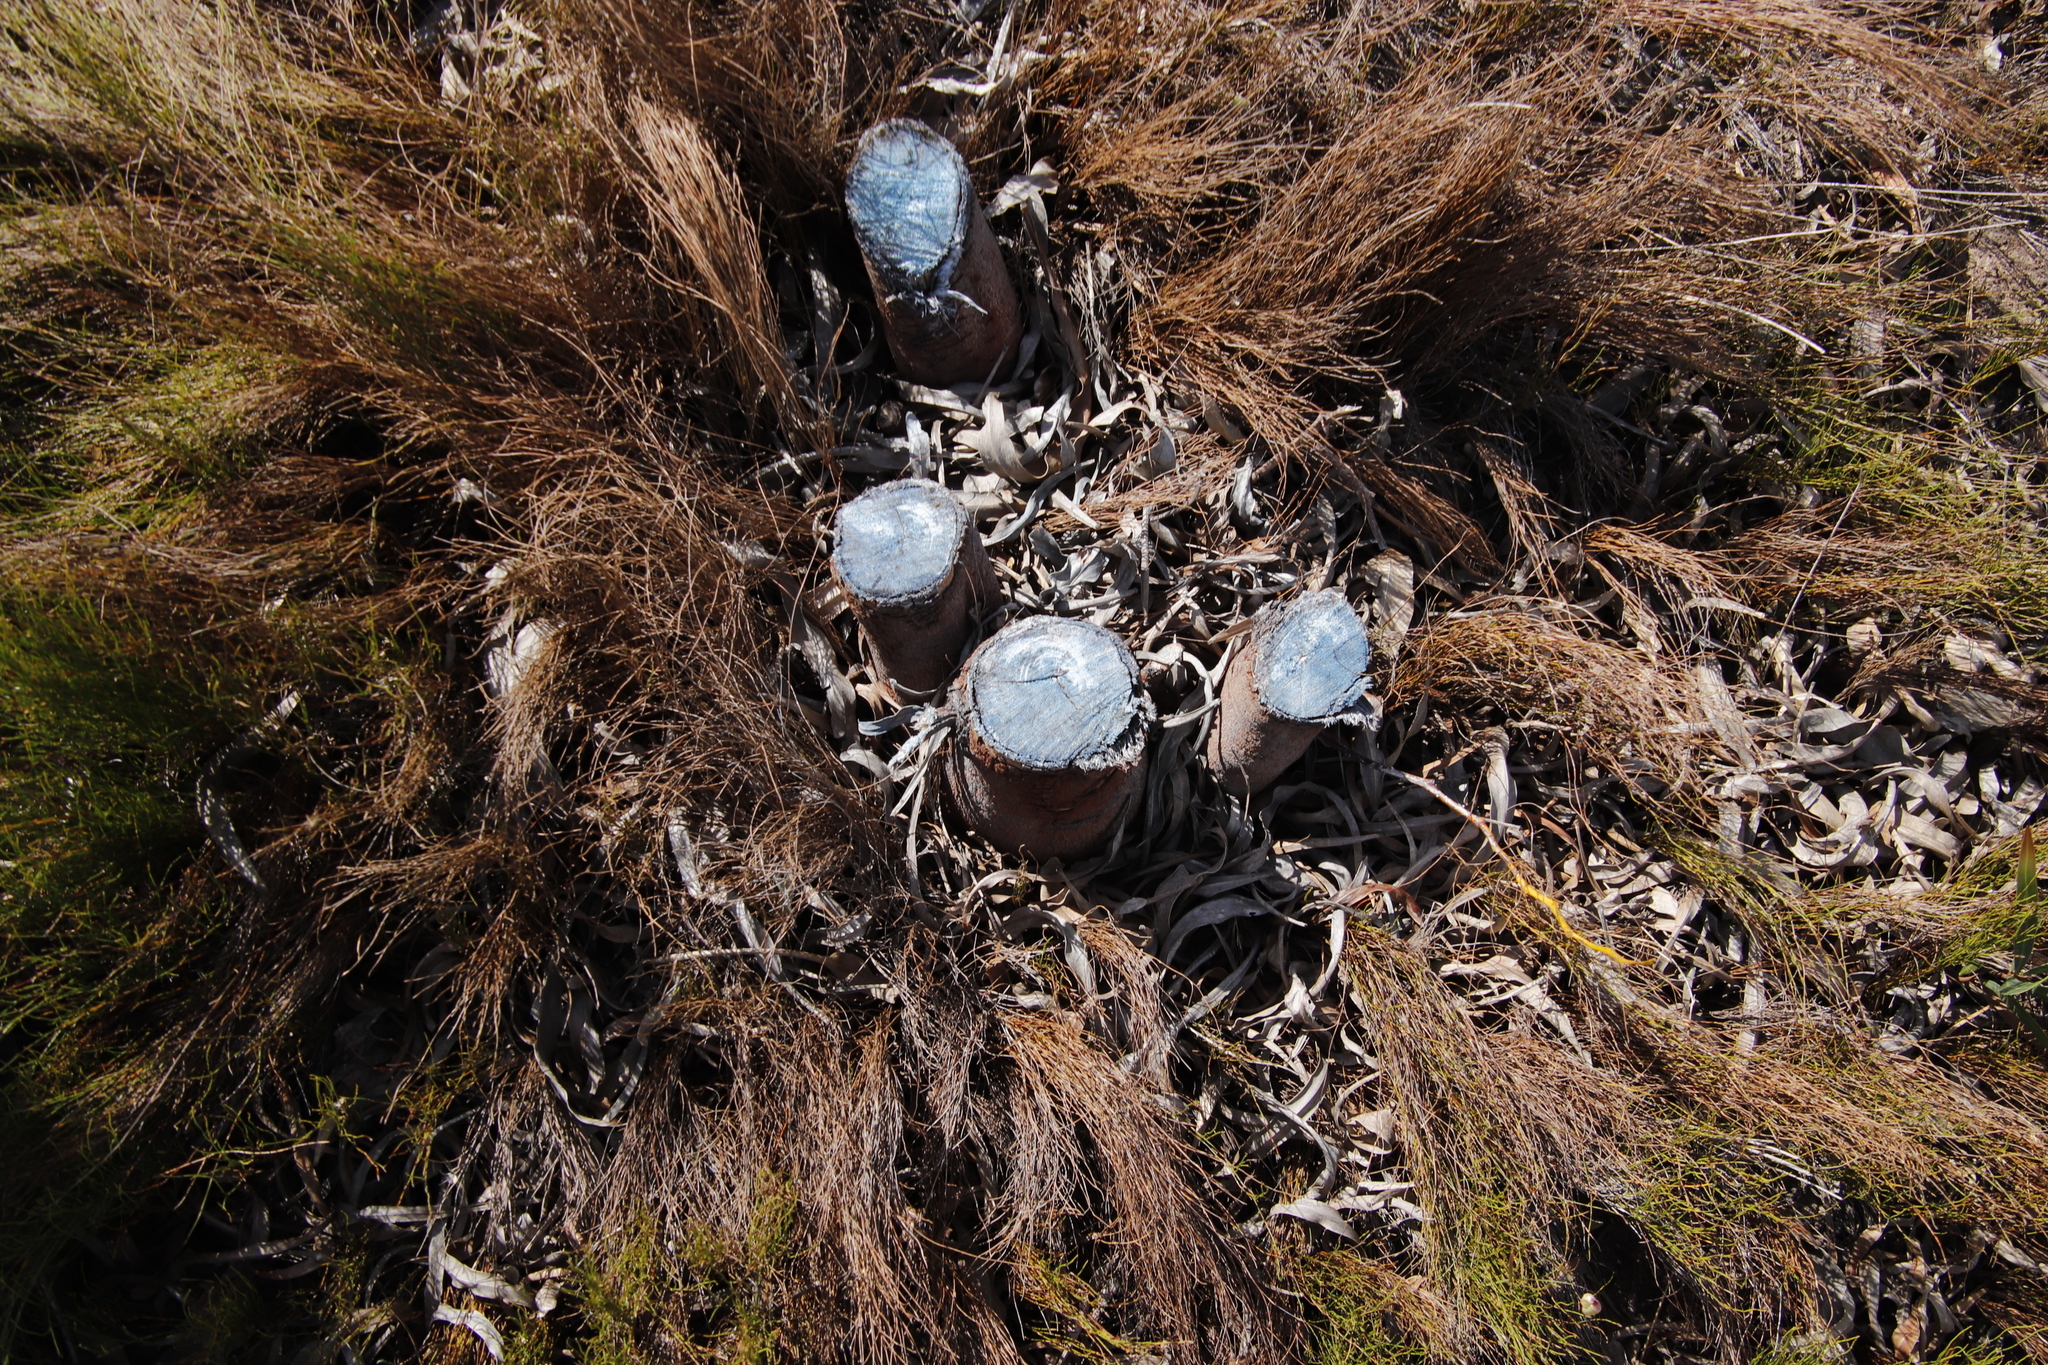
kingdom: Plantae
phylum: Tracheophyta
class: Magnoliopsida
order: Fabales
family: Fabaceae
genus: Acacia
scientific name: Acacia saligna
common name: Orange wattle
